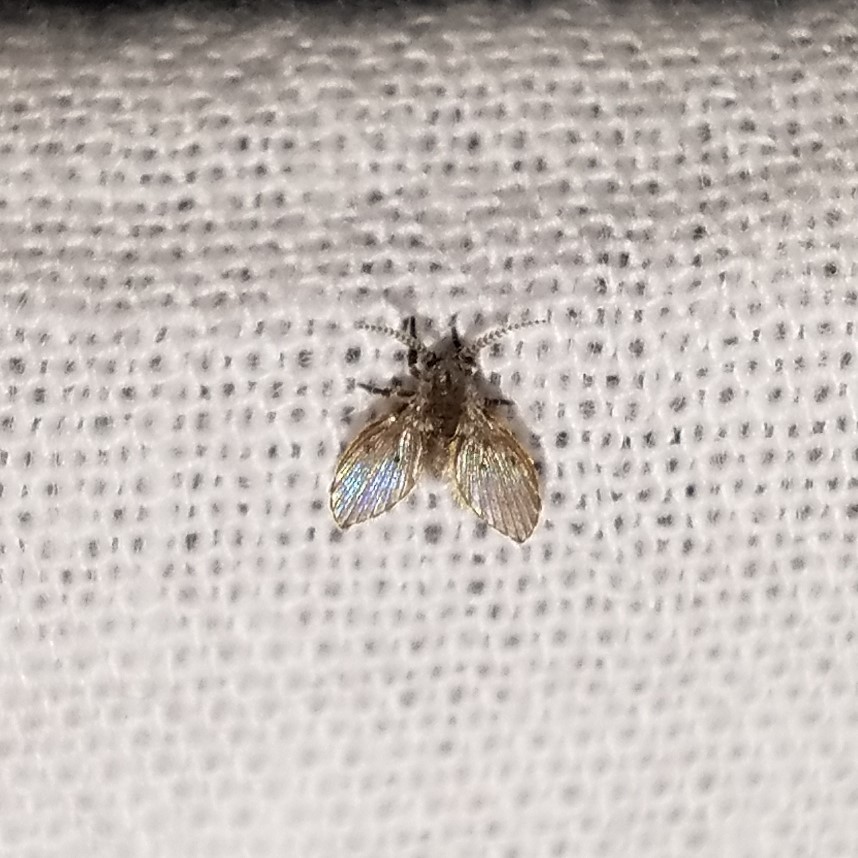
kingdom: Animalia
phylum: Arthropoda
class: Insecta
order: Diptera
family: Psychodidae
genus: Clogmia
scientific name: Clogmia albipunctatus
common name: White-spotted moth fly
